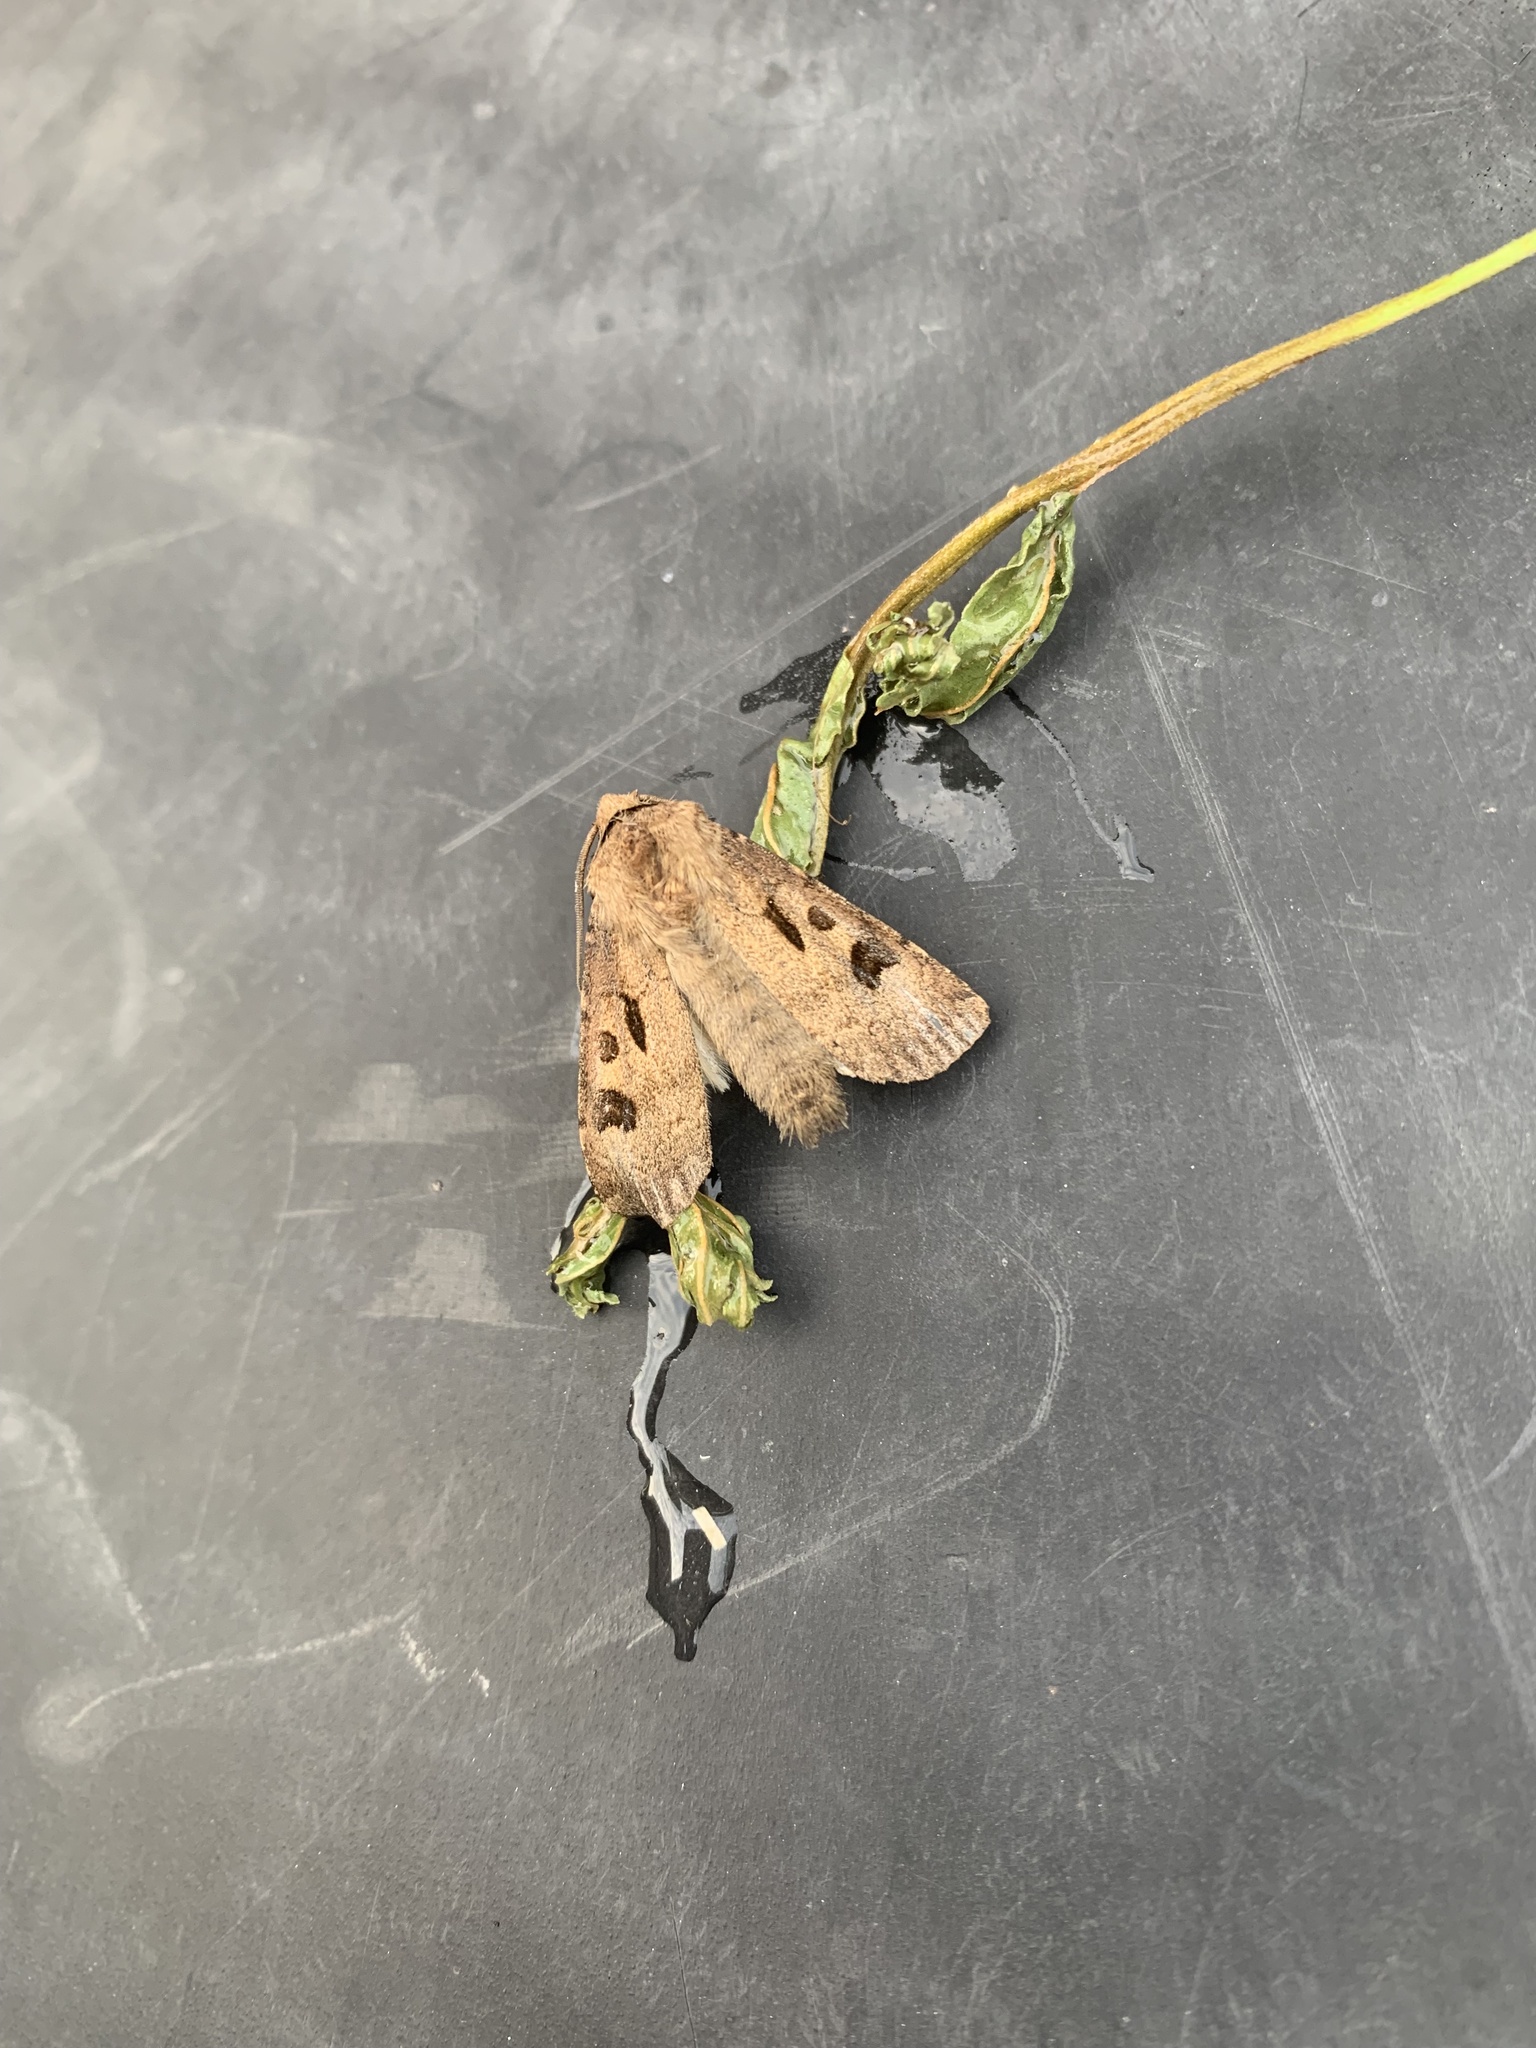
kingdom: Animalia
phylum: Arthropoda
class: Insecta
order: Lepidoptera
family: Noctuidae
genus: Agrotis
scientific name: Agrotis exclamationis
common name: Heart and dart
